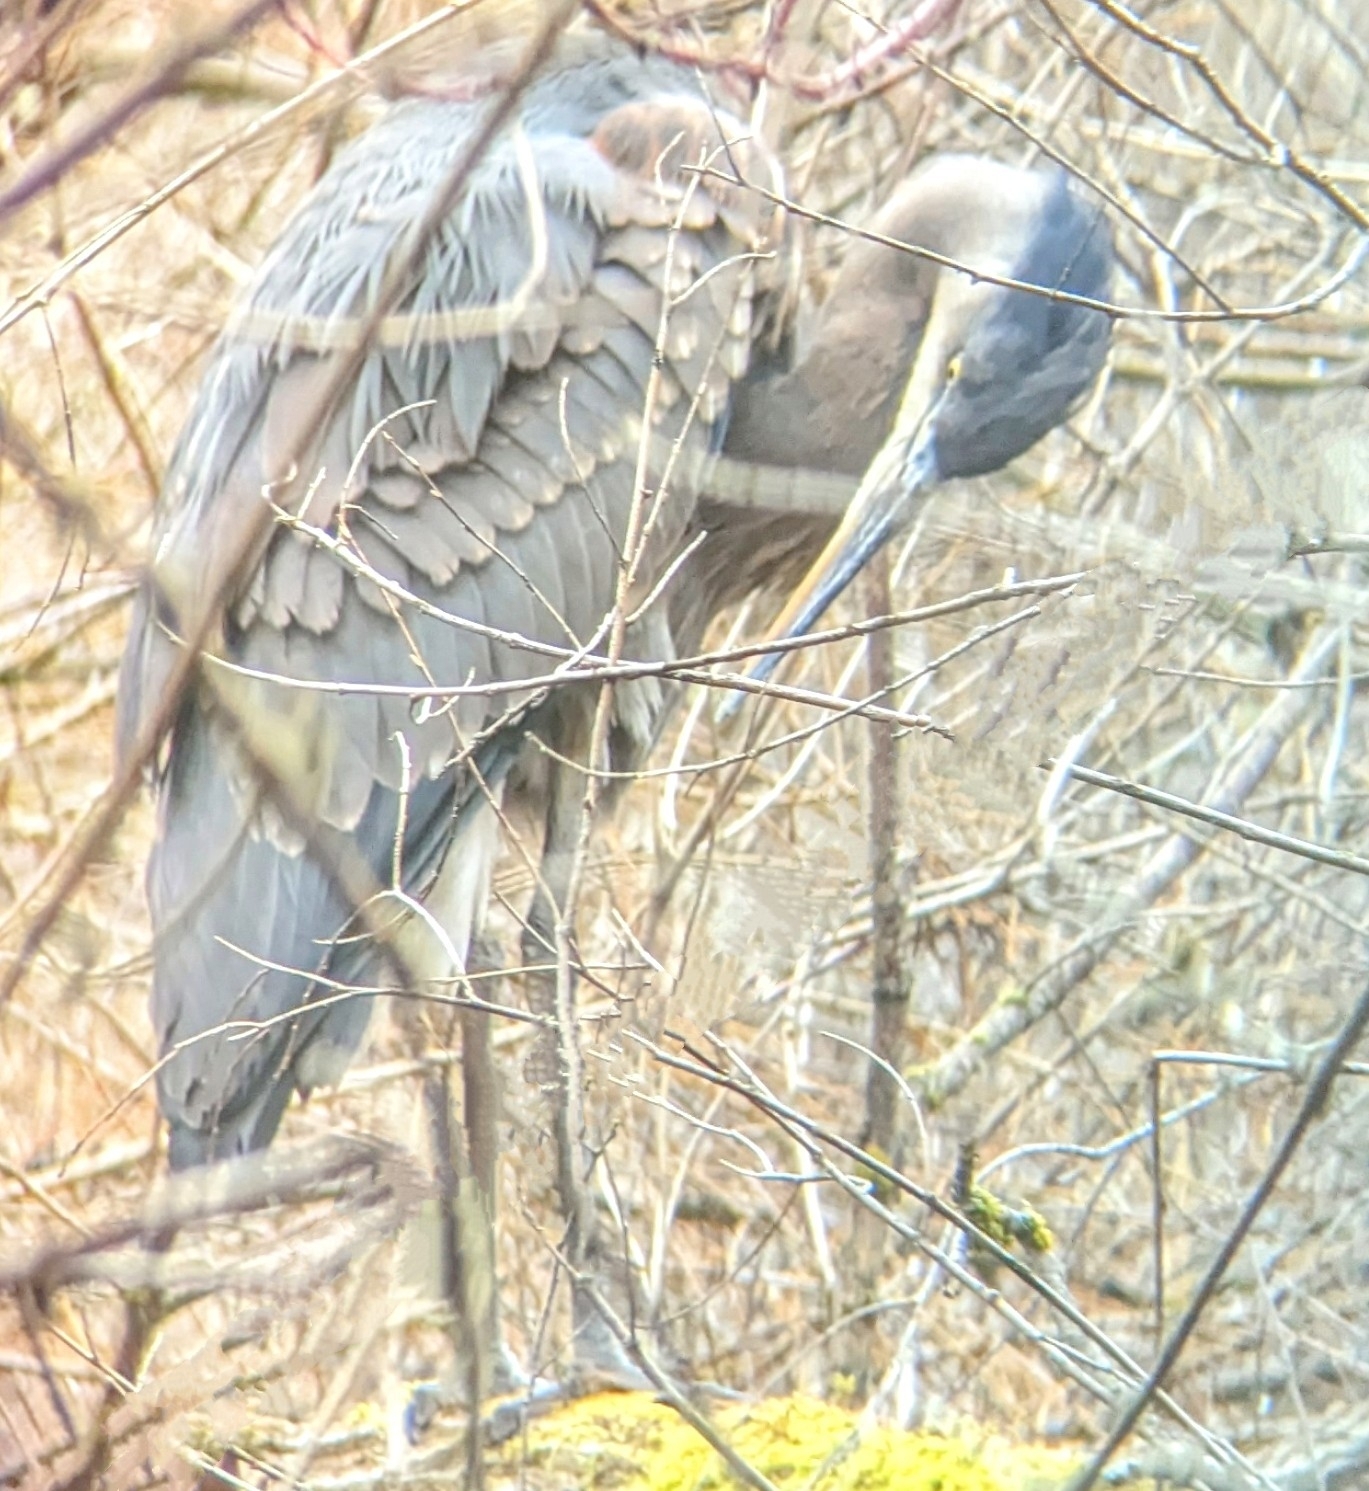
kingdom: Animalia
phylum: Chordata
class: Aves
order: Pelecaniformes
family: Ardeidae
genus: Ardea
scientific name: Ardea herodias
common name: Great blue heron
